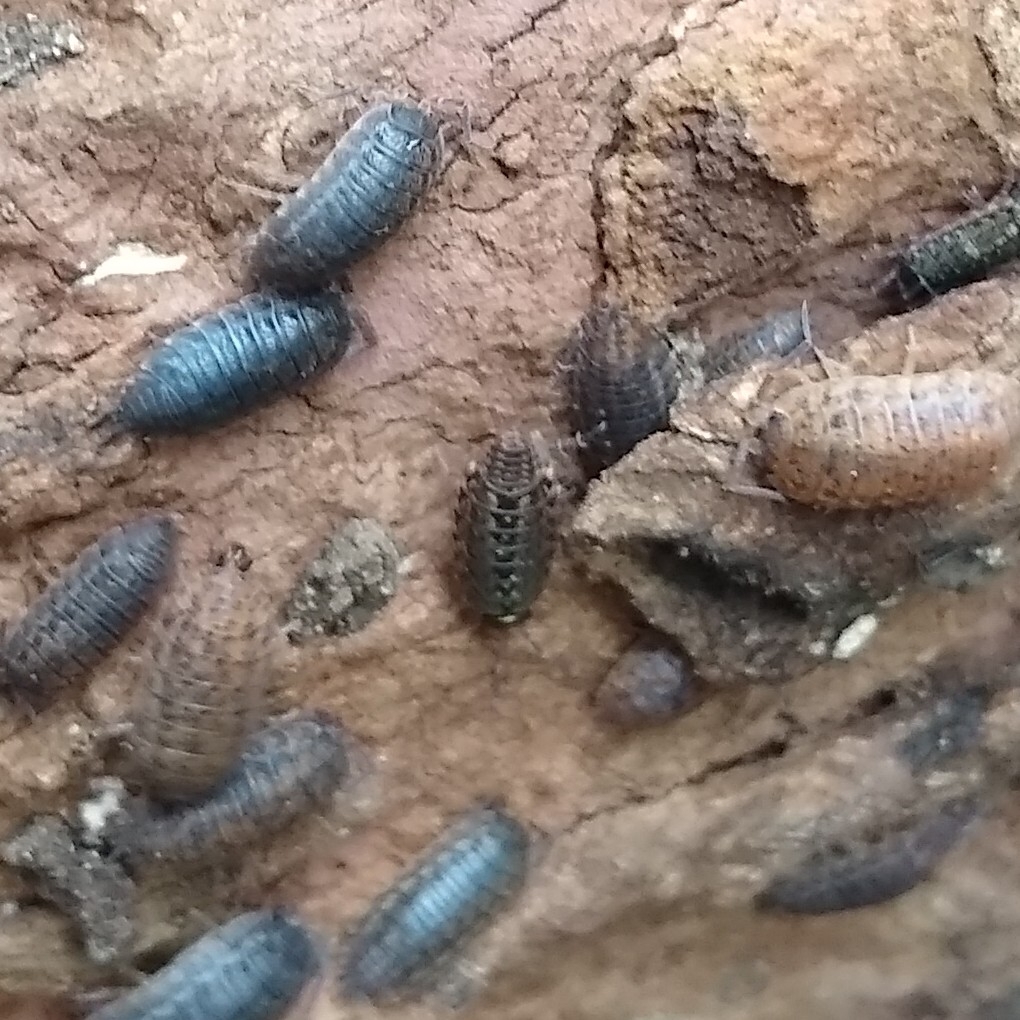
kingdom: Animalia
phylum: Arthropoda
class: Malacostraca
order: Isopoda
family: Philosciidae
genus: Philoscia
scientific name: Philoscia muscorum
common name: Common striped woodlouse
